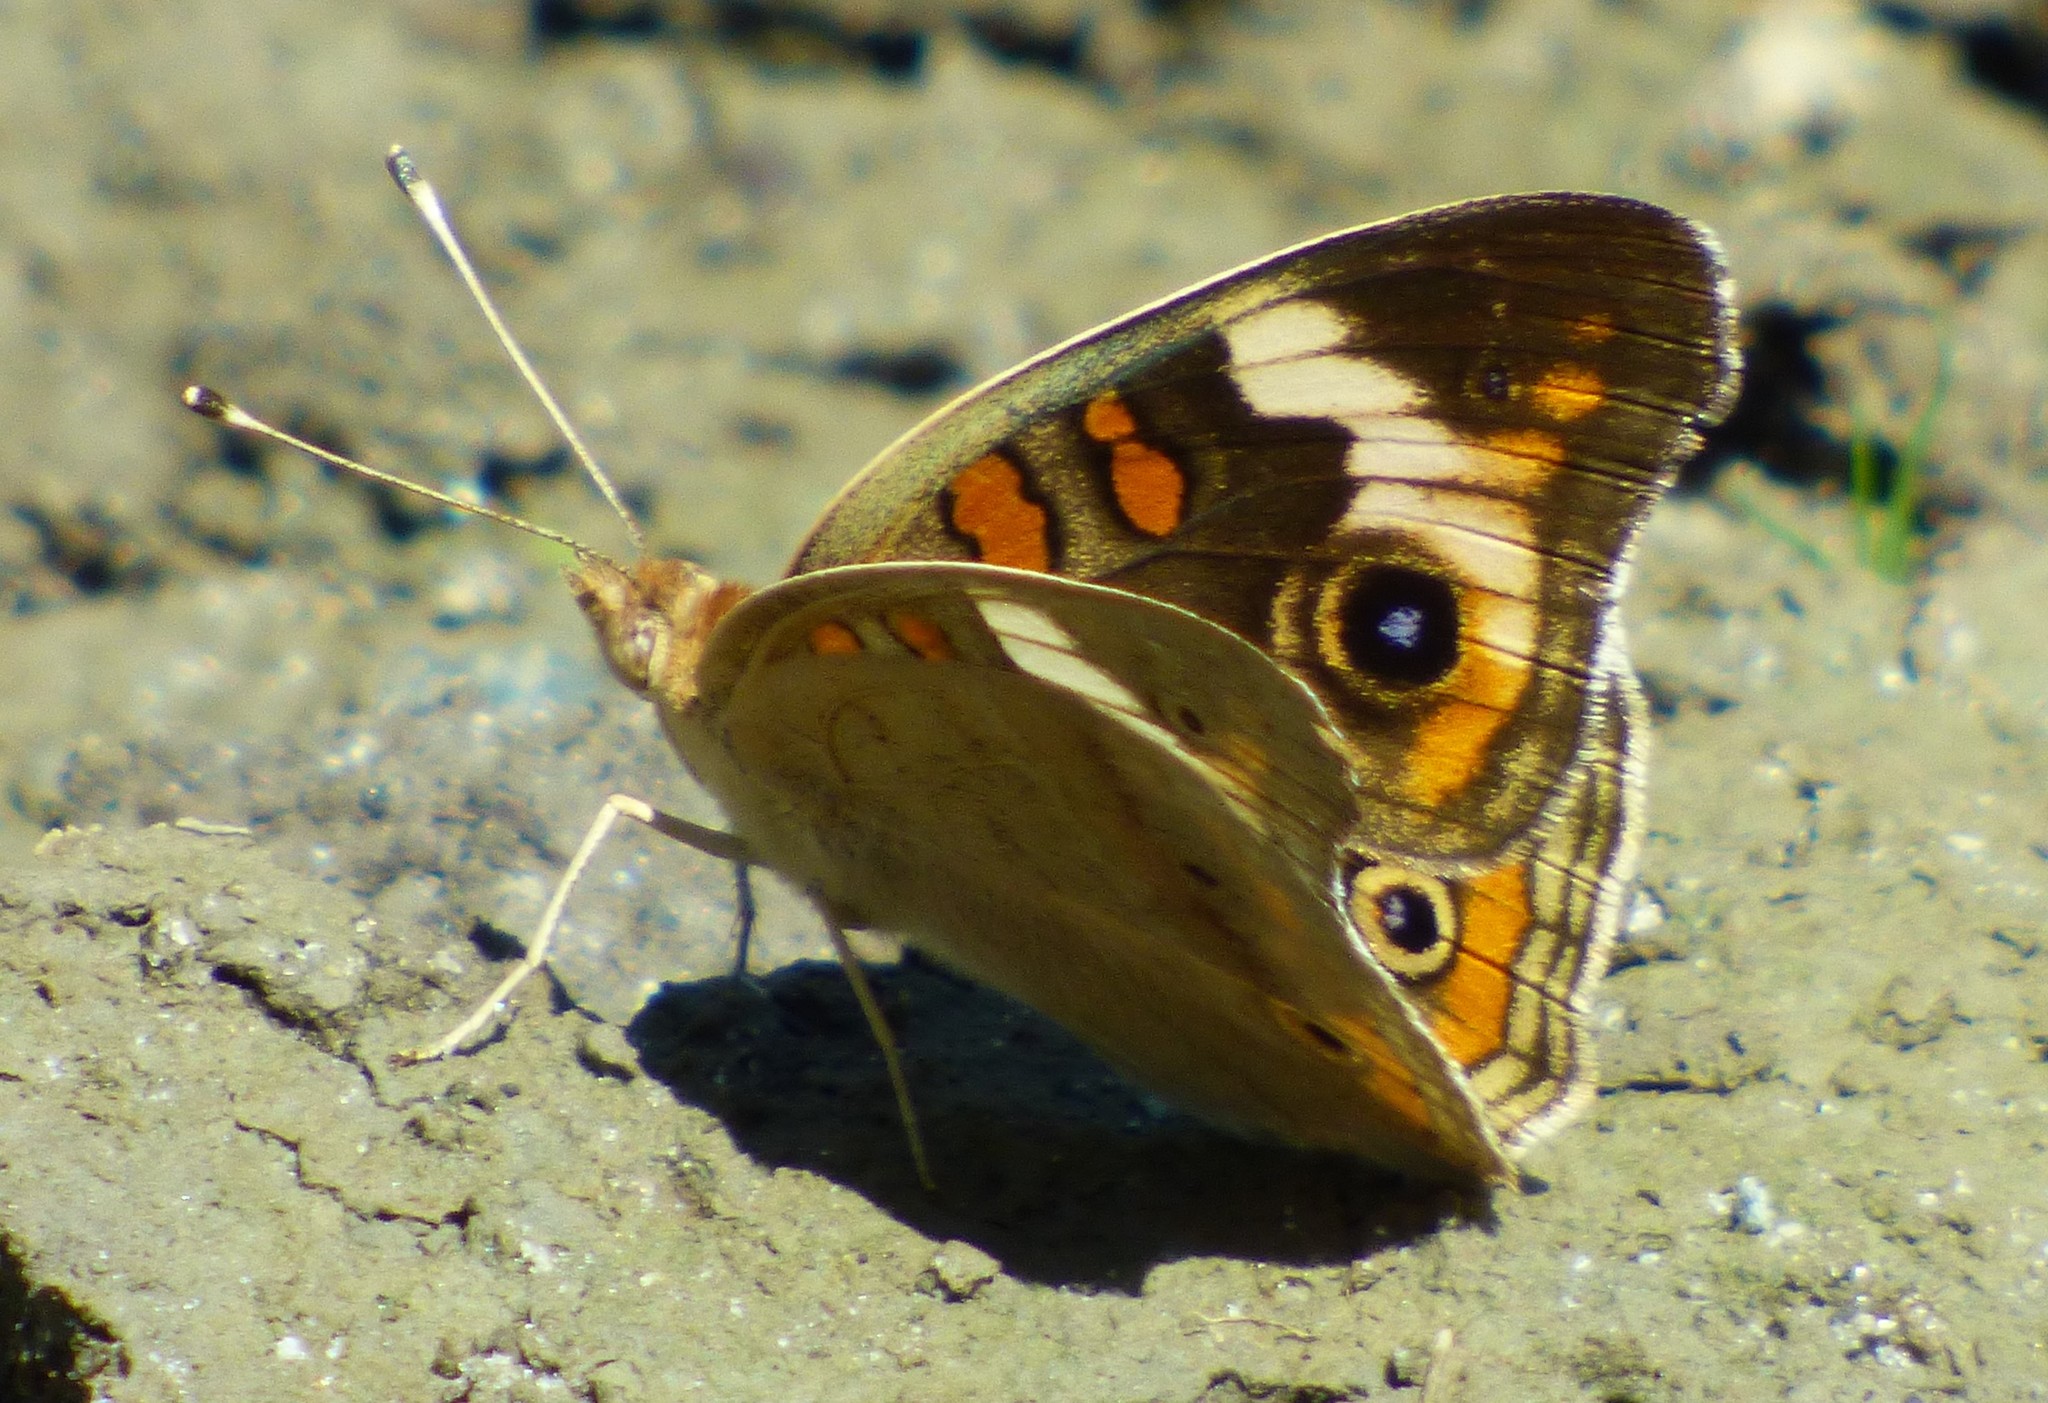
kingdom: Animalia
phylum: Arthropoda
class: Insecta
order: Lepidoptera
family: Nymphalidae
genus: Junonia
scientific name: Junonia coenia
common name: Common buckeye
